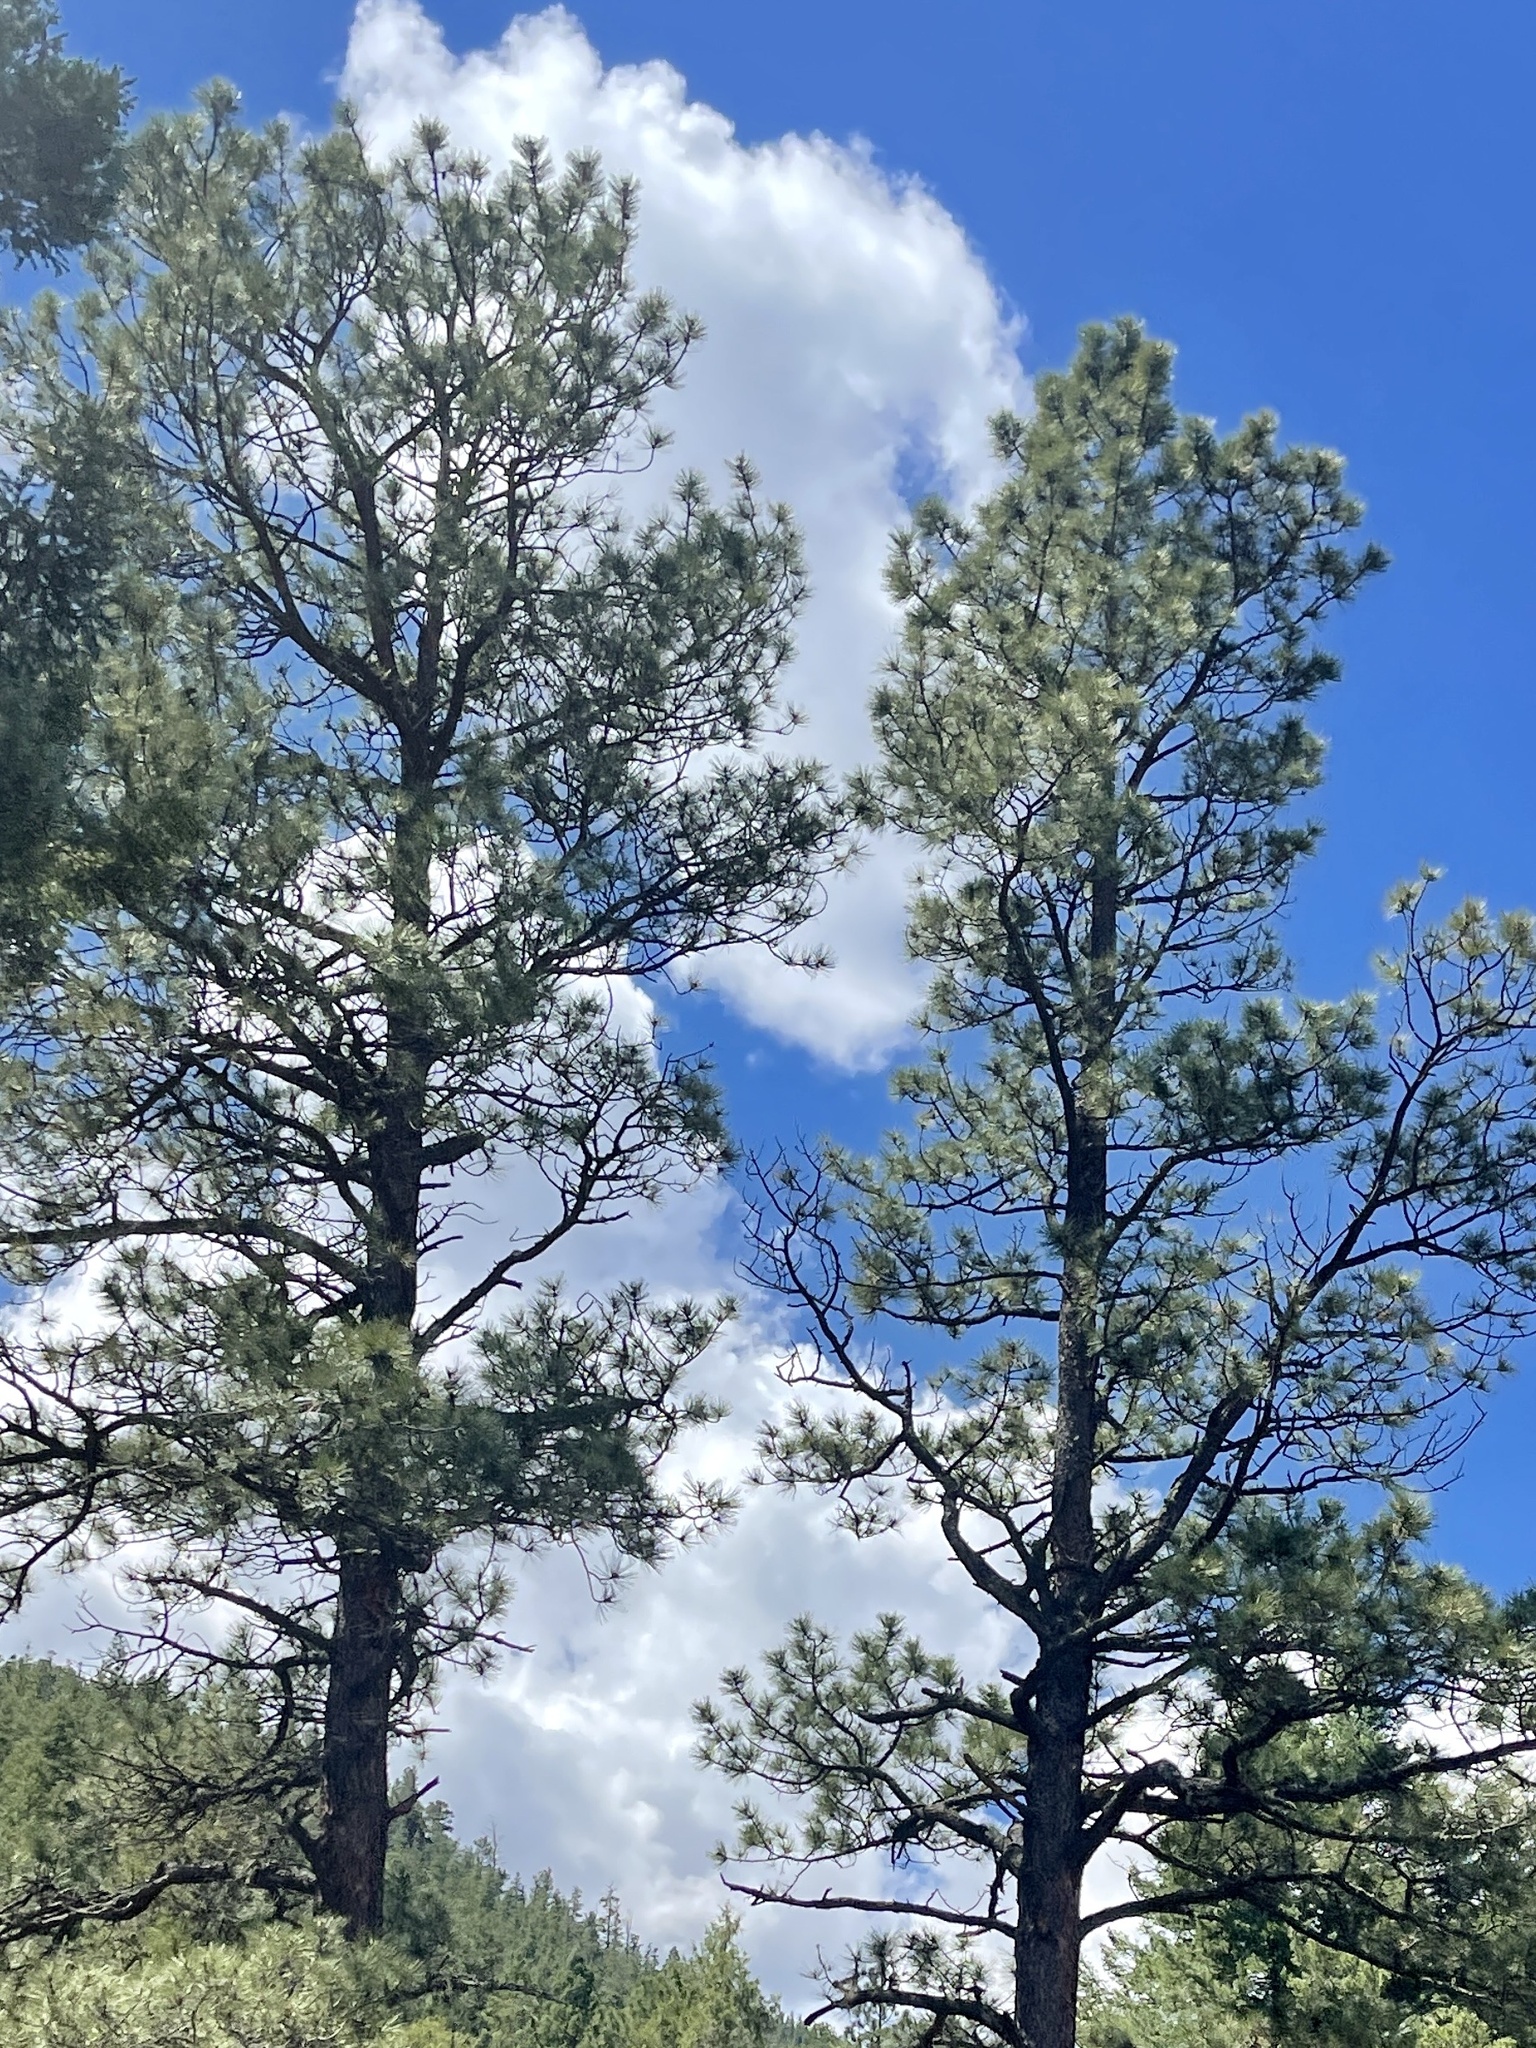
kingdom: Plantae
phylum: Tracheophyta
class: Pinopsida
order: Pinales
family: Pinaceae
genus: Pinus
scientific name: Pinus ponderosa
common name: Western yellow-pine
